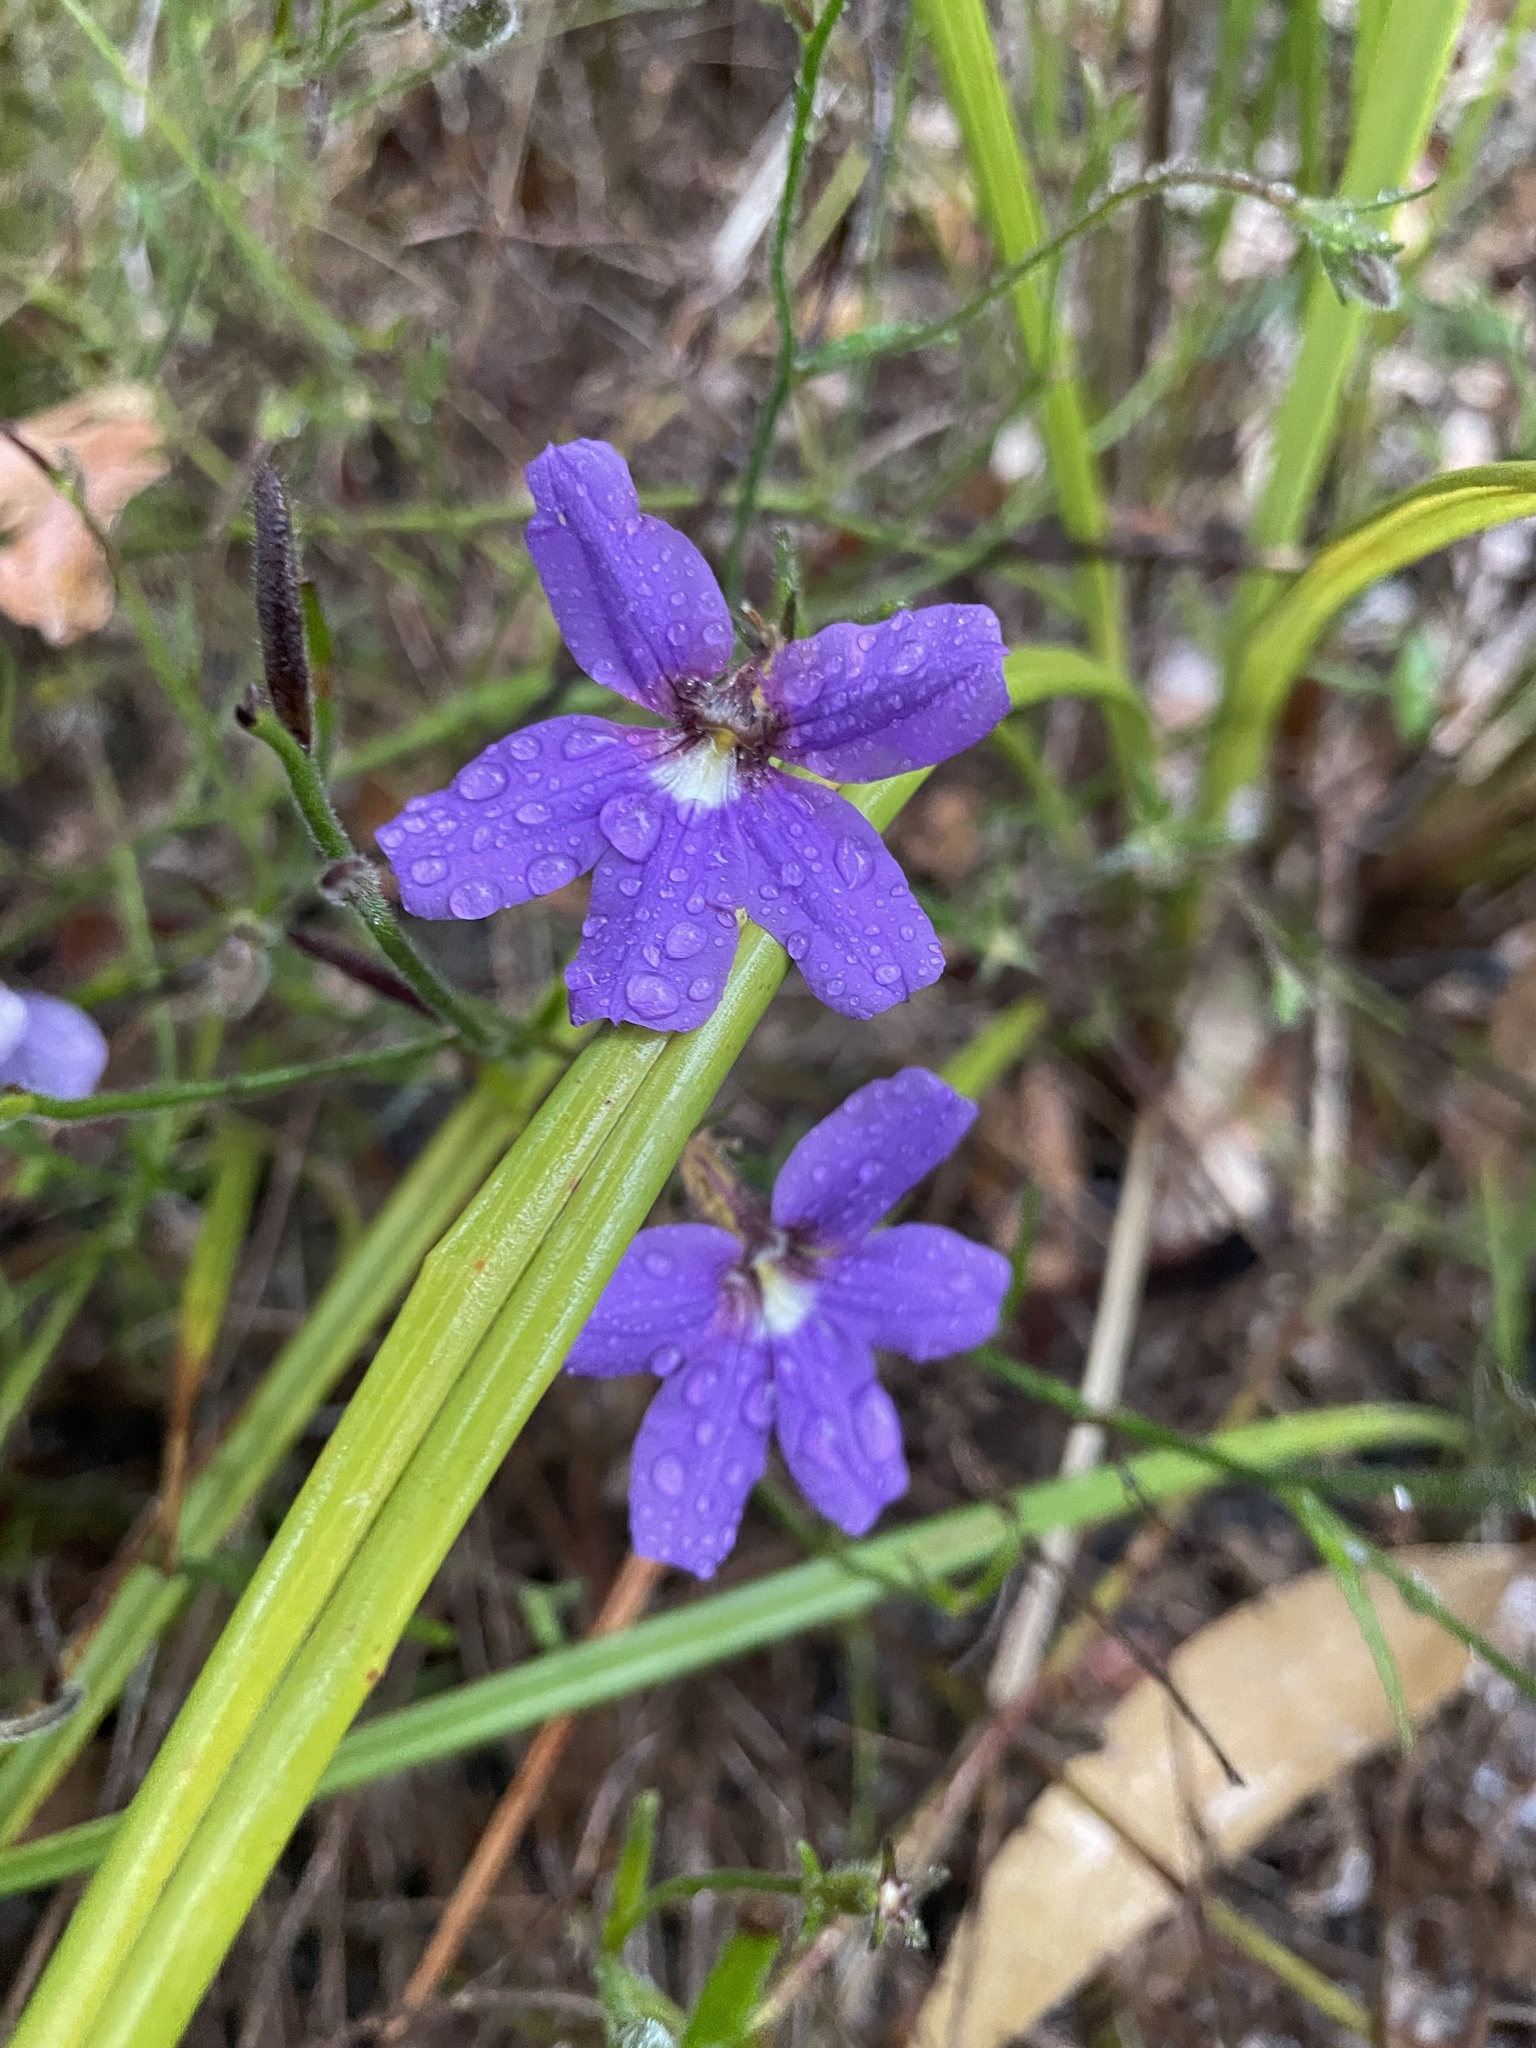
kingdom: Plantae
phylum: Tracheophyta
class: Magnoliopsida
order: Asterales
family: Goodeniaceae
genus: Scaevola
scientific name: Scaevola ramosissima
